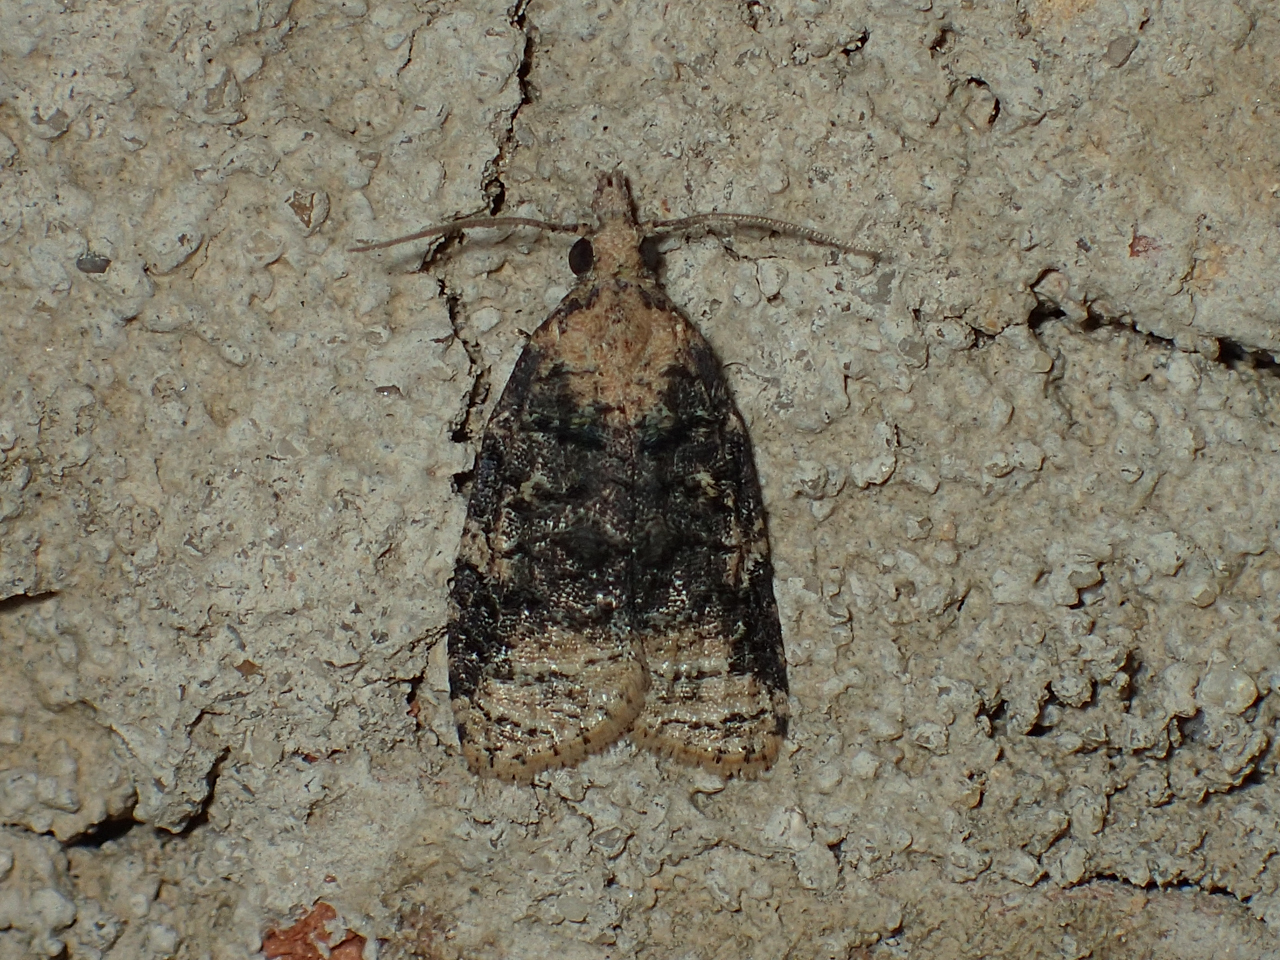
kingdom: Animalia
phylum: Arthropoda
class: Insecta
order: Lepidoptera
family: Tortricidae
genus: Platynota
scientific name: Platynota exasperatana
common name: Exasperating platynota moth
